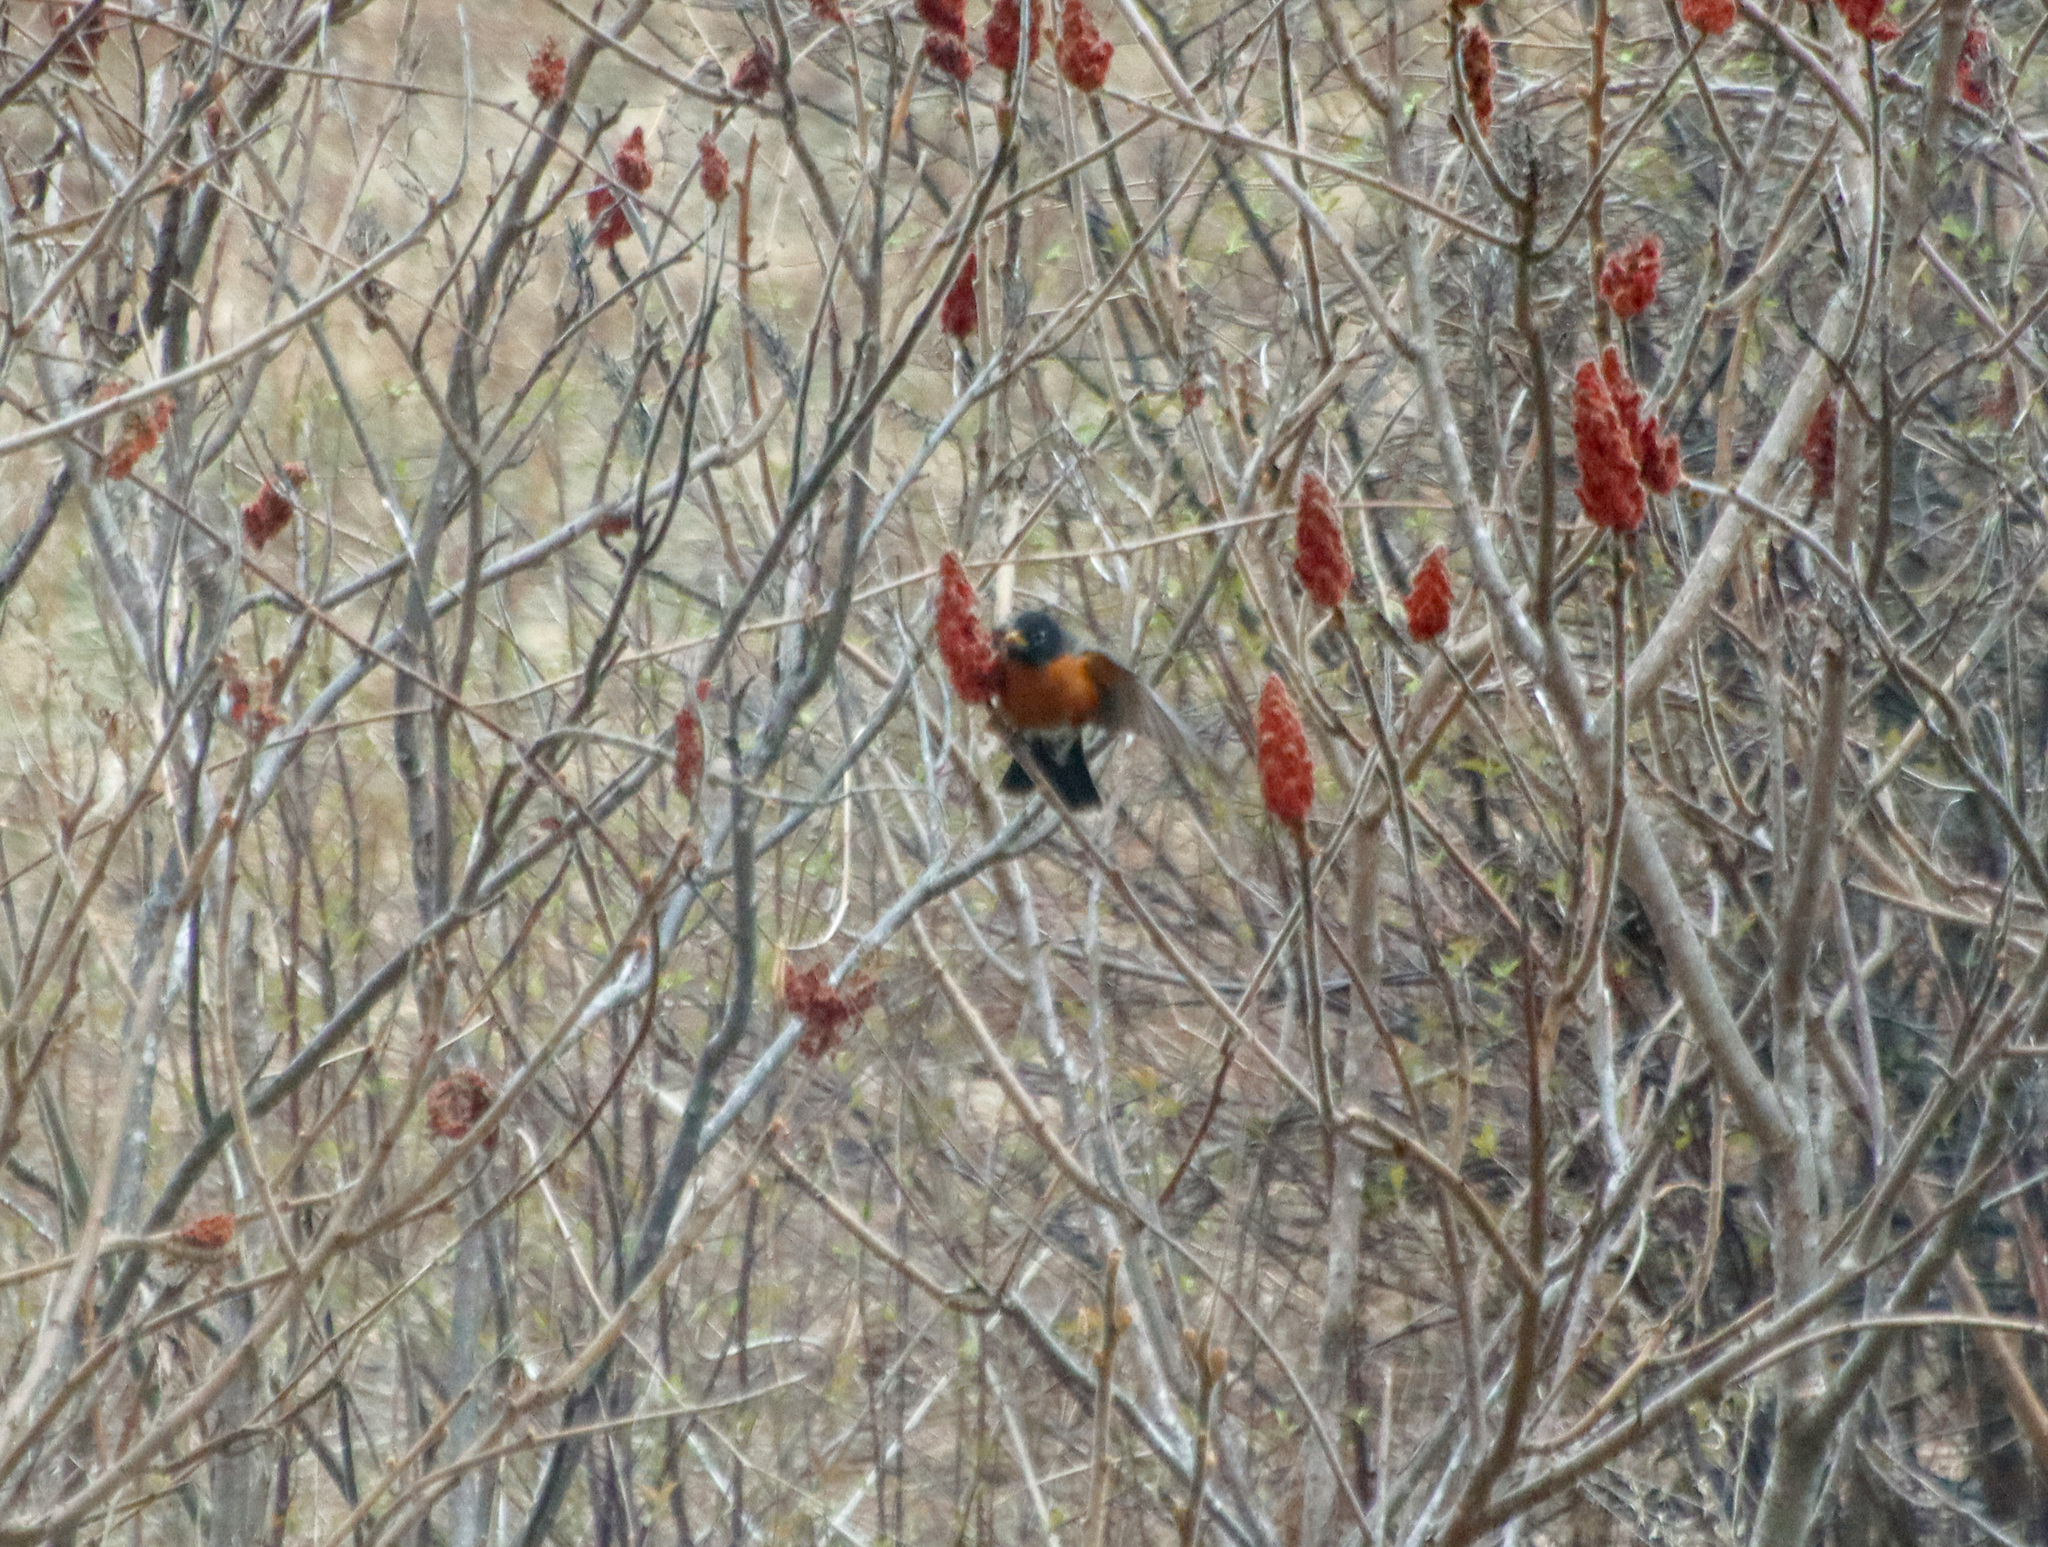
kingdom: Animalia
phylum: Chordata
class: Aves
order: Passeriformes
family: Turdidae
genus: Turdus
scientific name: Turdus migratorius
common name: American robin
